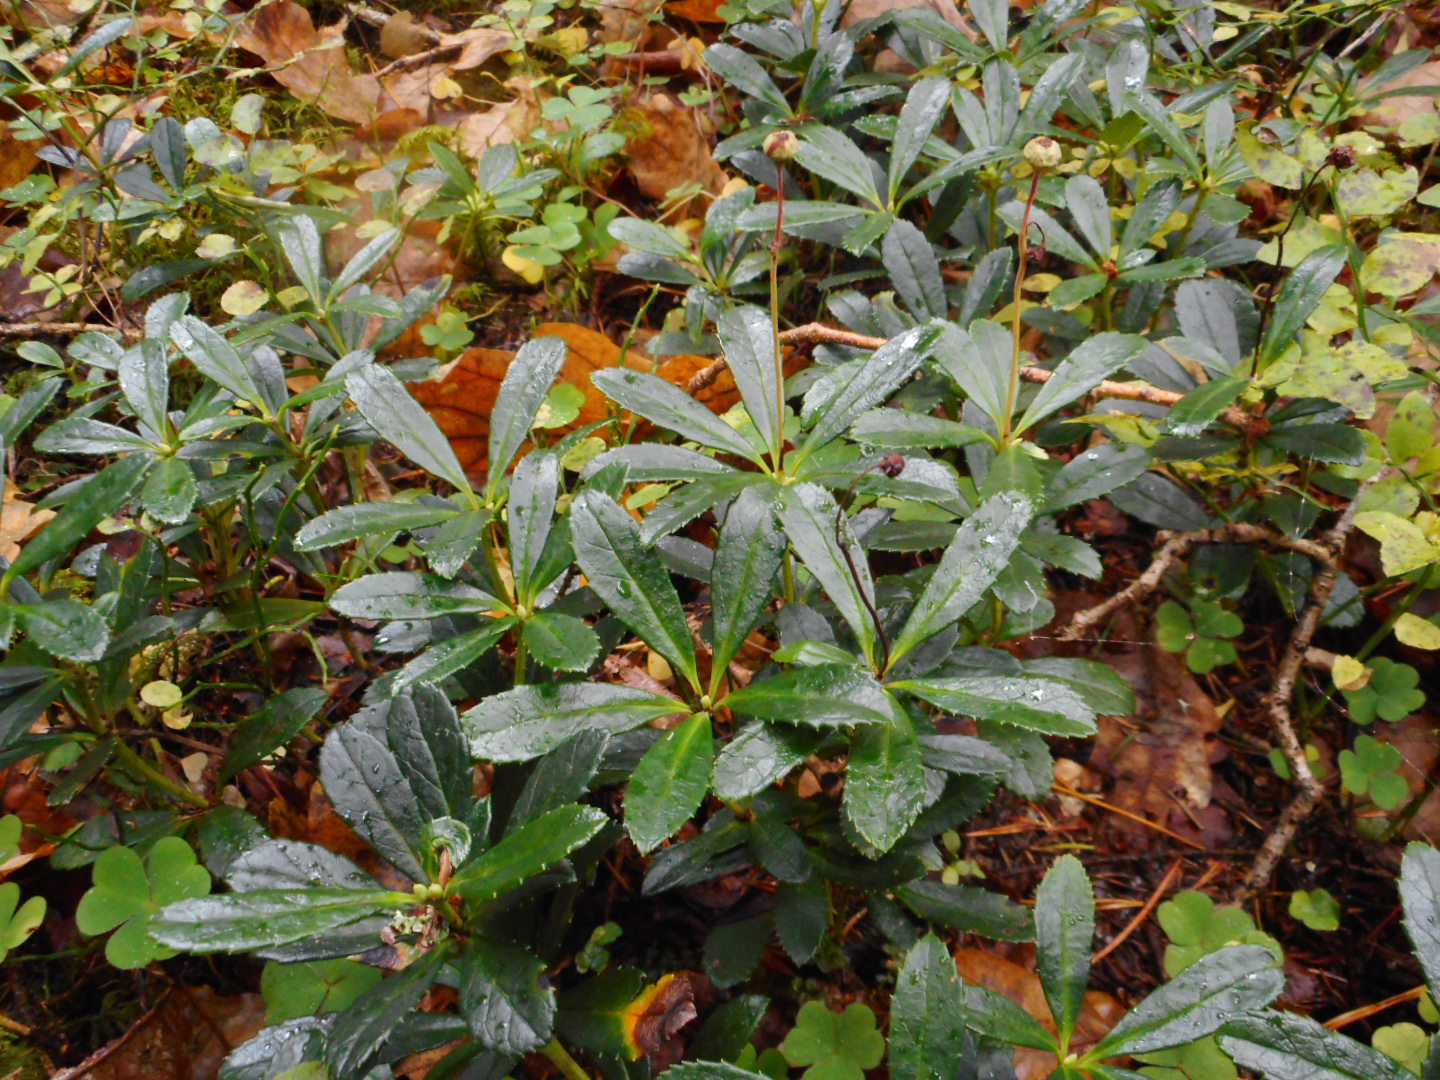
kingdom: Plantae
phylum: Tracheophyta
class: Magnoliopsida
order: Ericales
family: Ericaceae
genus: Chimaphila
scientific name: Chimaphila umbellata
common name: Pipsissewa
